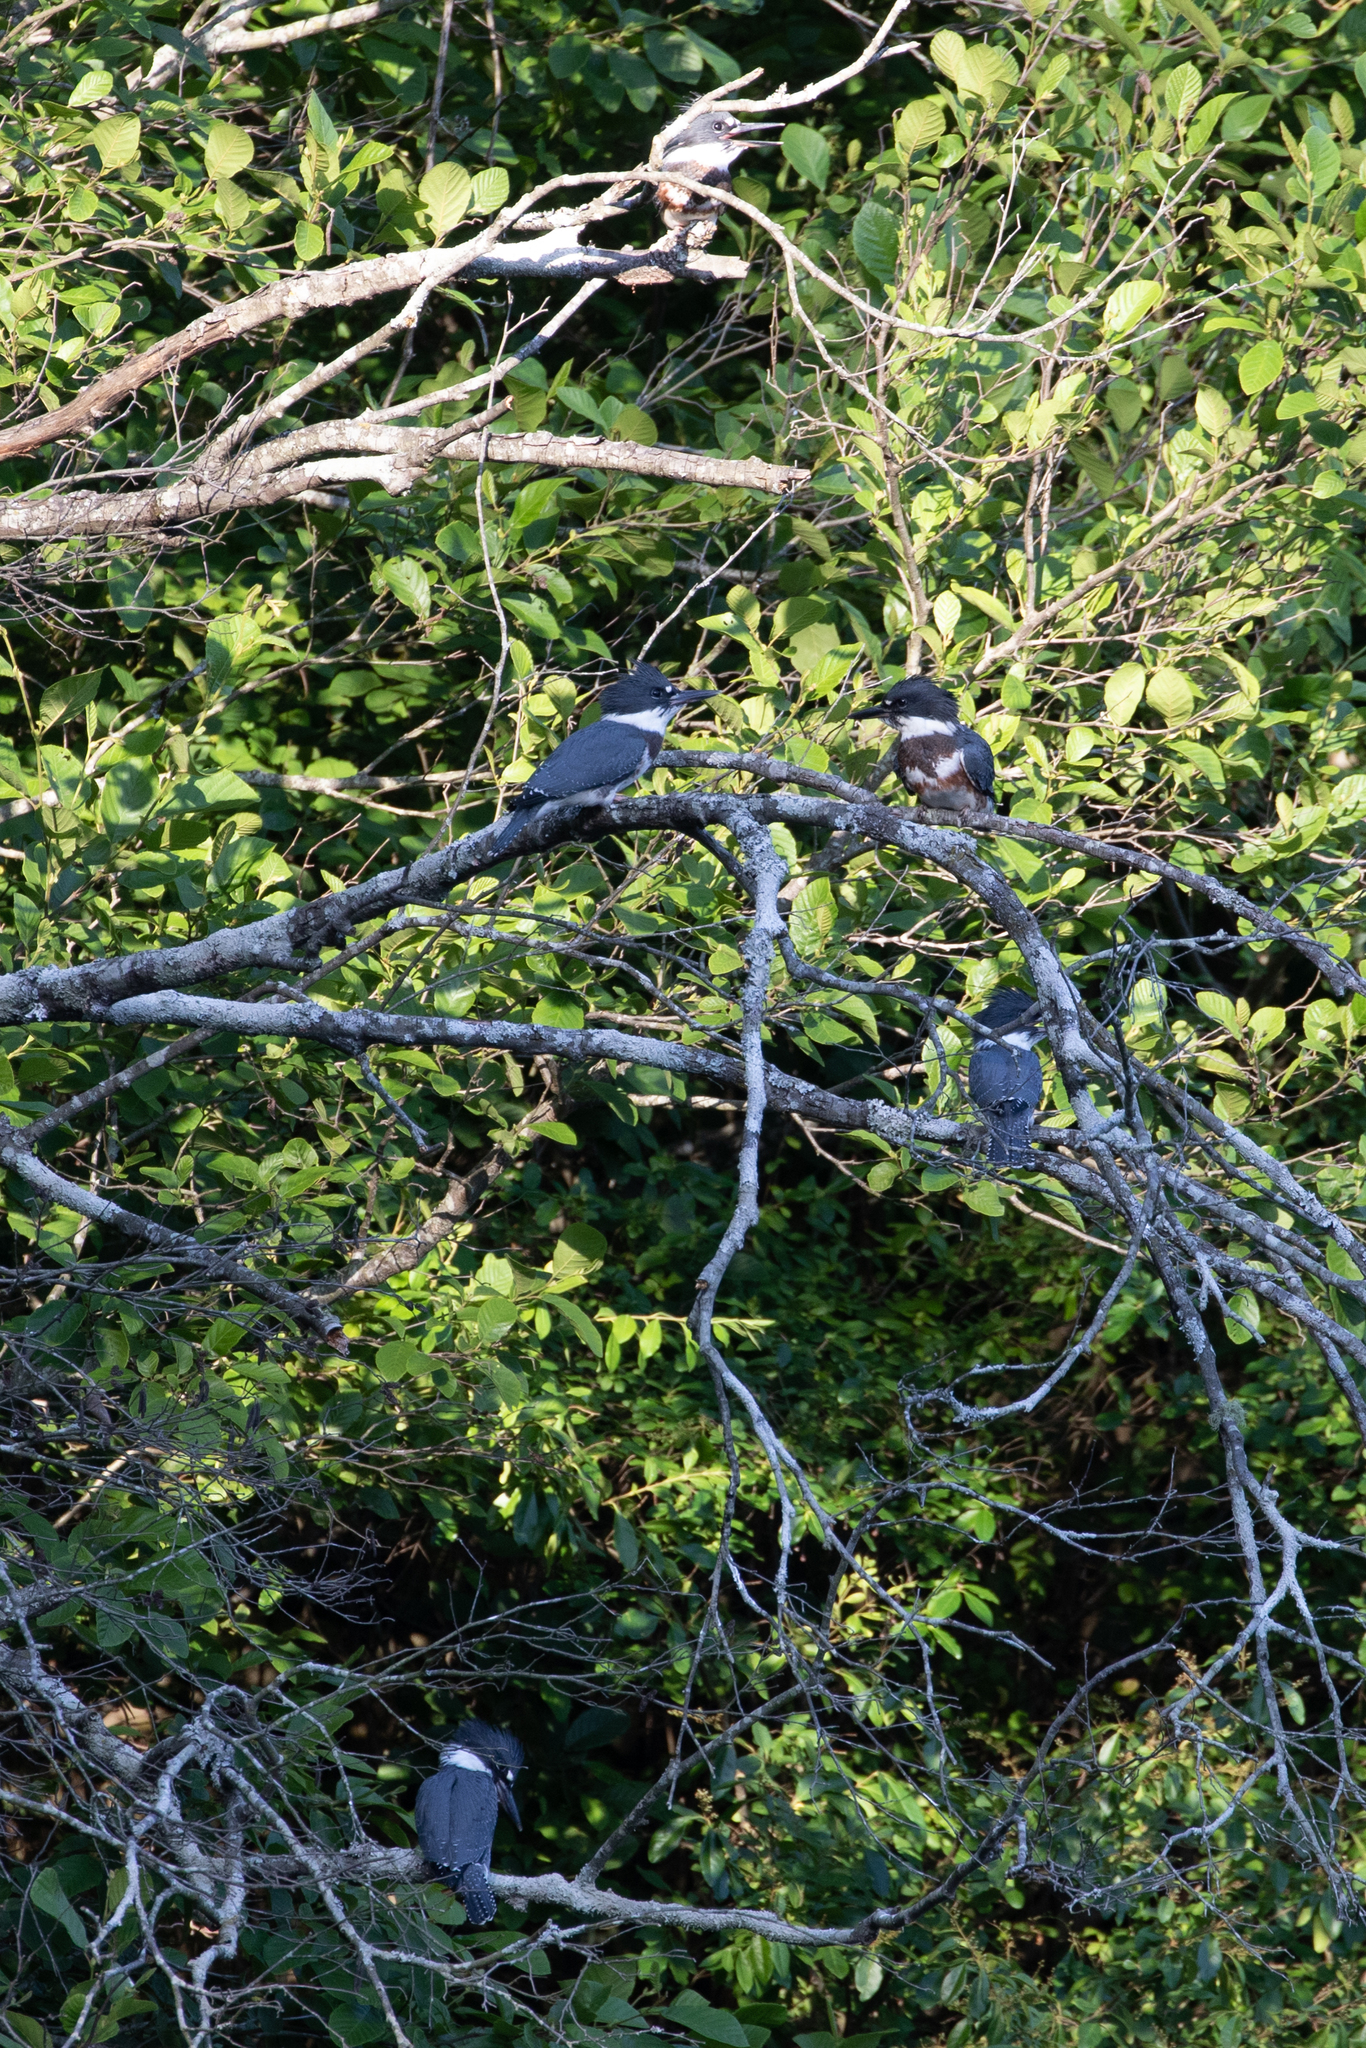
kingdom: Animalia
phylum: Chordata
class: Aves
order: Coraciiformes
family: Alcedinidae
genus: Megaceryle
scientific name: Megaceryle alcyon
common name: Belted kingfisher
